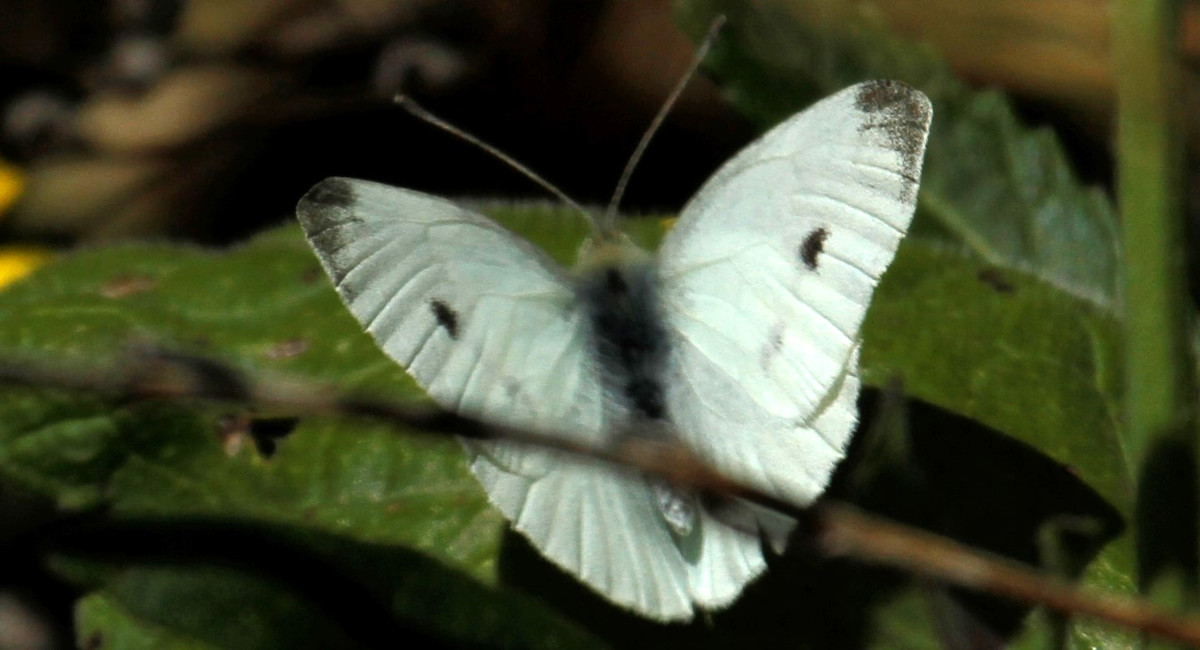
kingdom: Animalia
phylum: Arthropoda
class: Insecta
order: Lepidoptera
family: Pieridae
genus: Pieris
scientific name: Pieris rapae
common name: Small white
